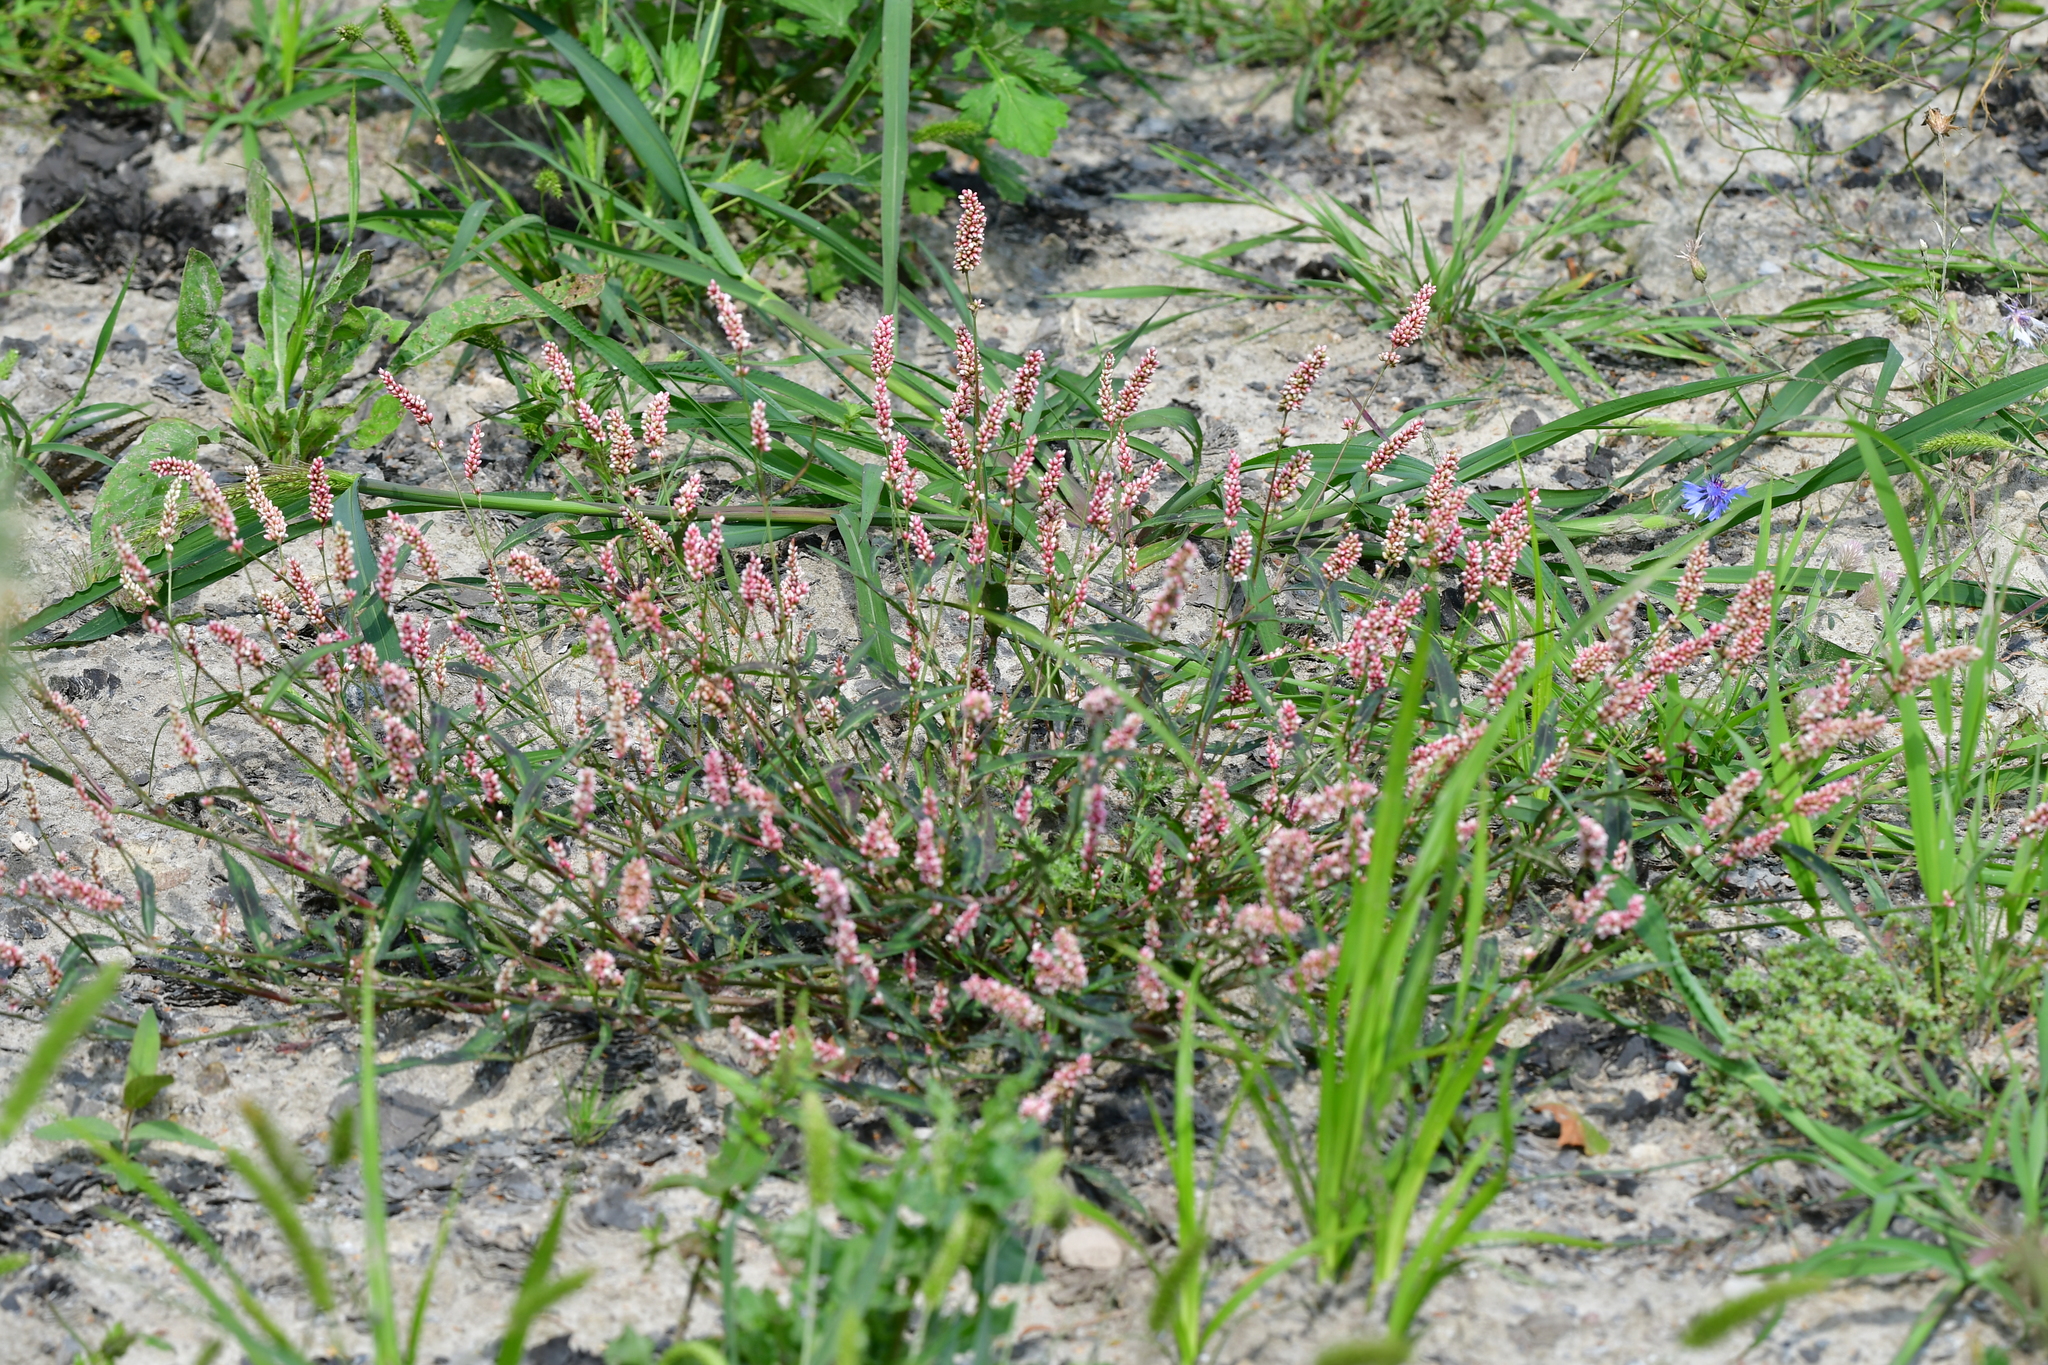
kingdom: Plantae
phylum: Tracheophyta
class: Magnoliopsida
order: Caryophyllales
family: Polygonaceae
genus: Persicaria
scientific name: Persicaria maculosa
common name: Redshank
